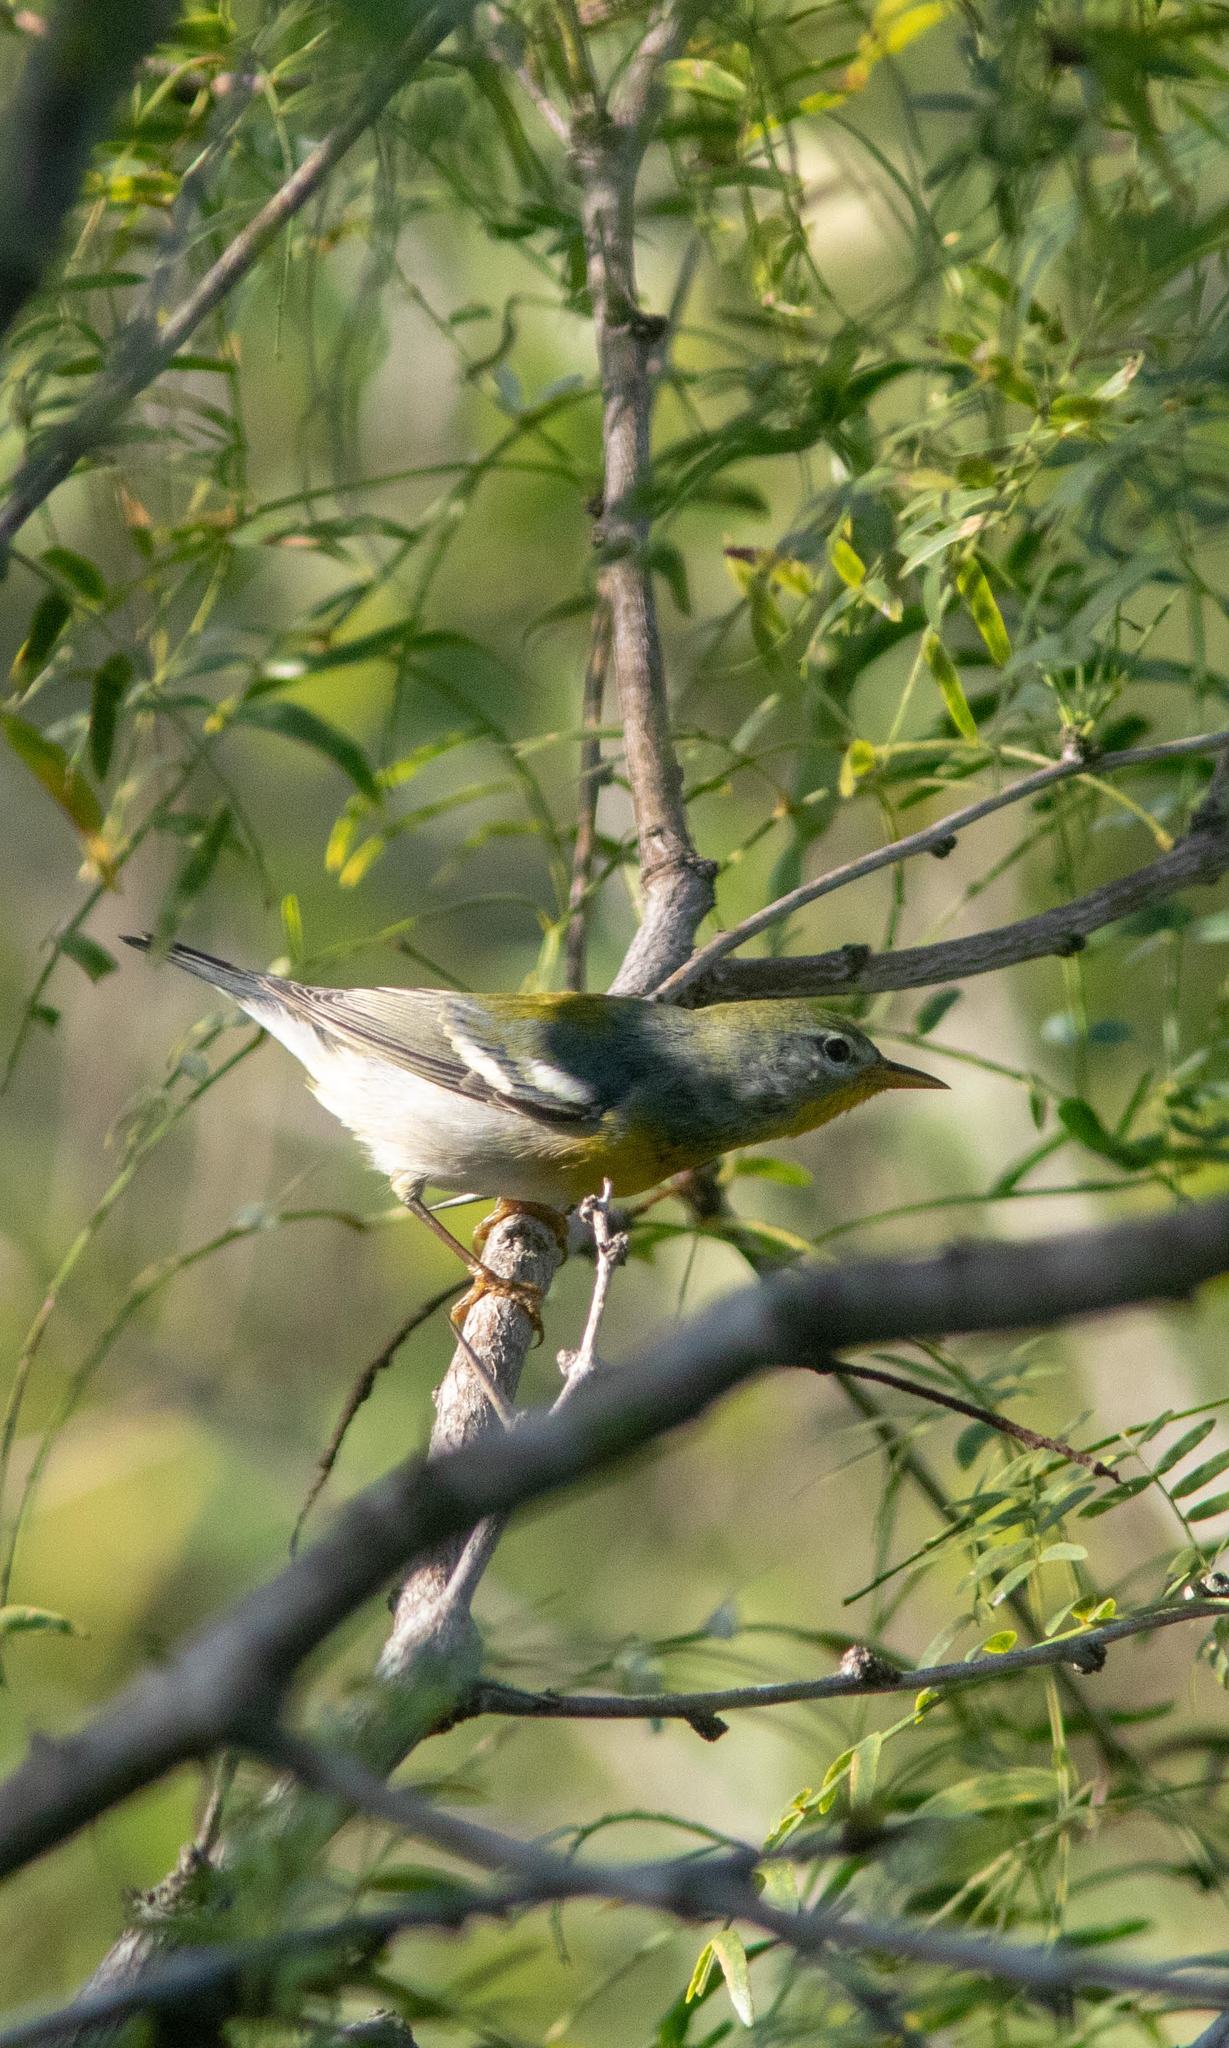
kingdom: Animalia
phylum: Chordata
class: Aves
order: Passeriformes
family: Parulidae
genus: Setophaga
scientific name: Setophaga americana
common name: Northern parula
